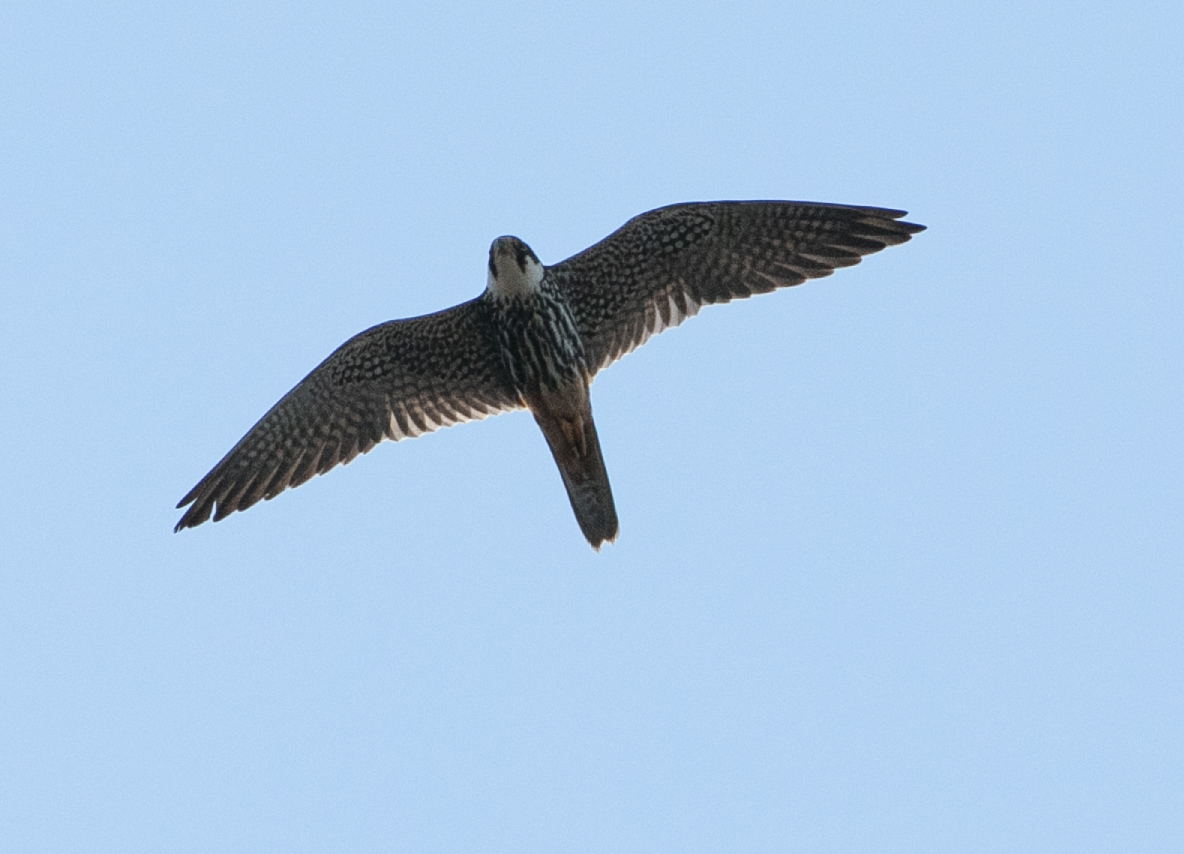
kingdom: Animalia
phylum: Chordata
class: Aves
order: Falconiformes
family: Falconidae
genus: Falco
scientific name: Falco subbuteo
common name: Eurasian hobby
